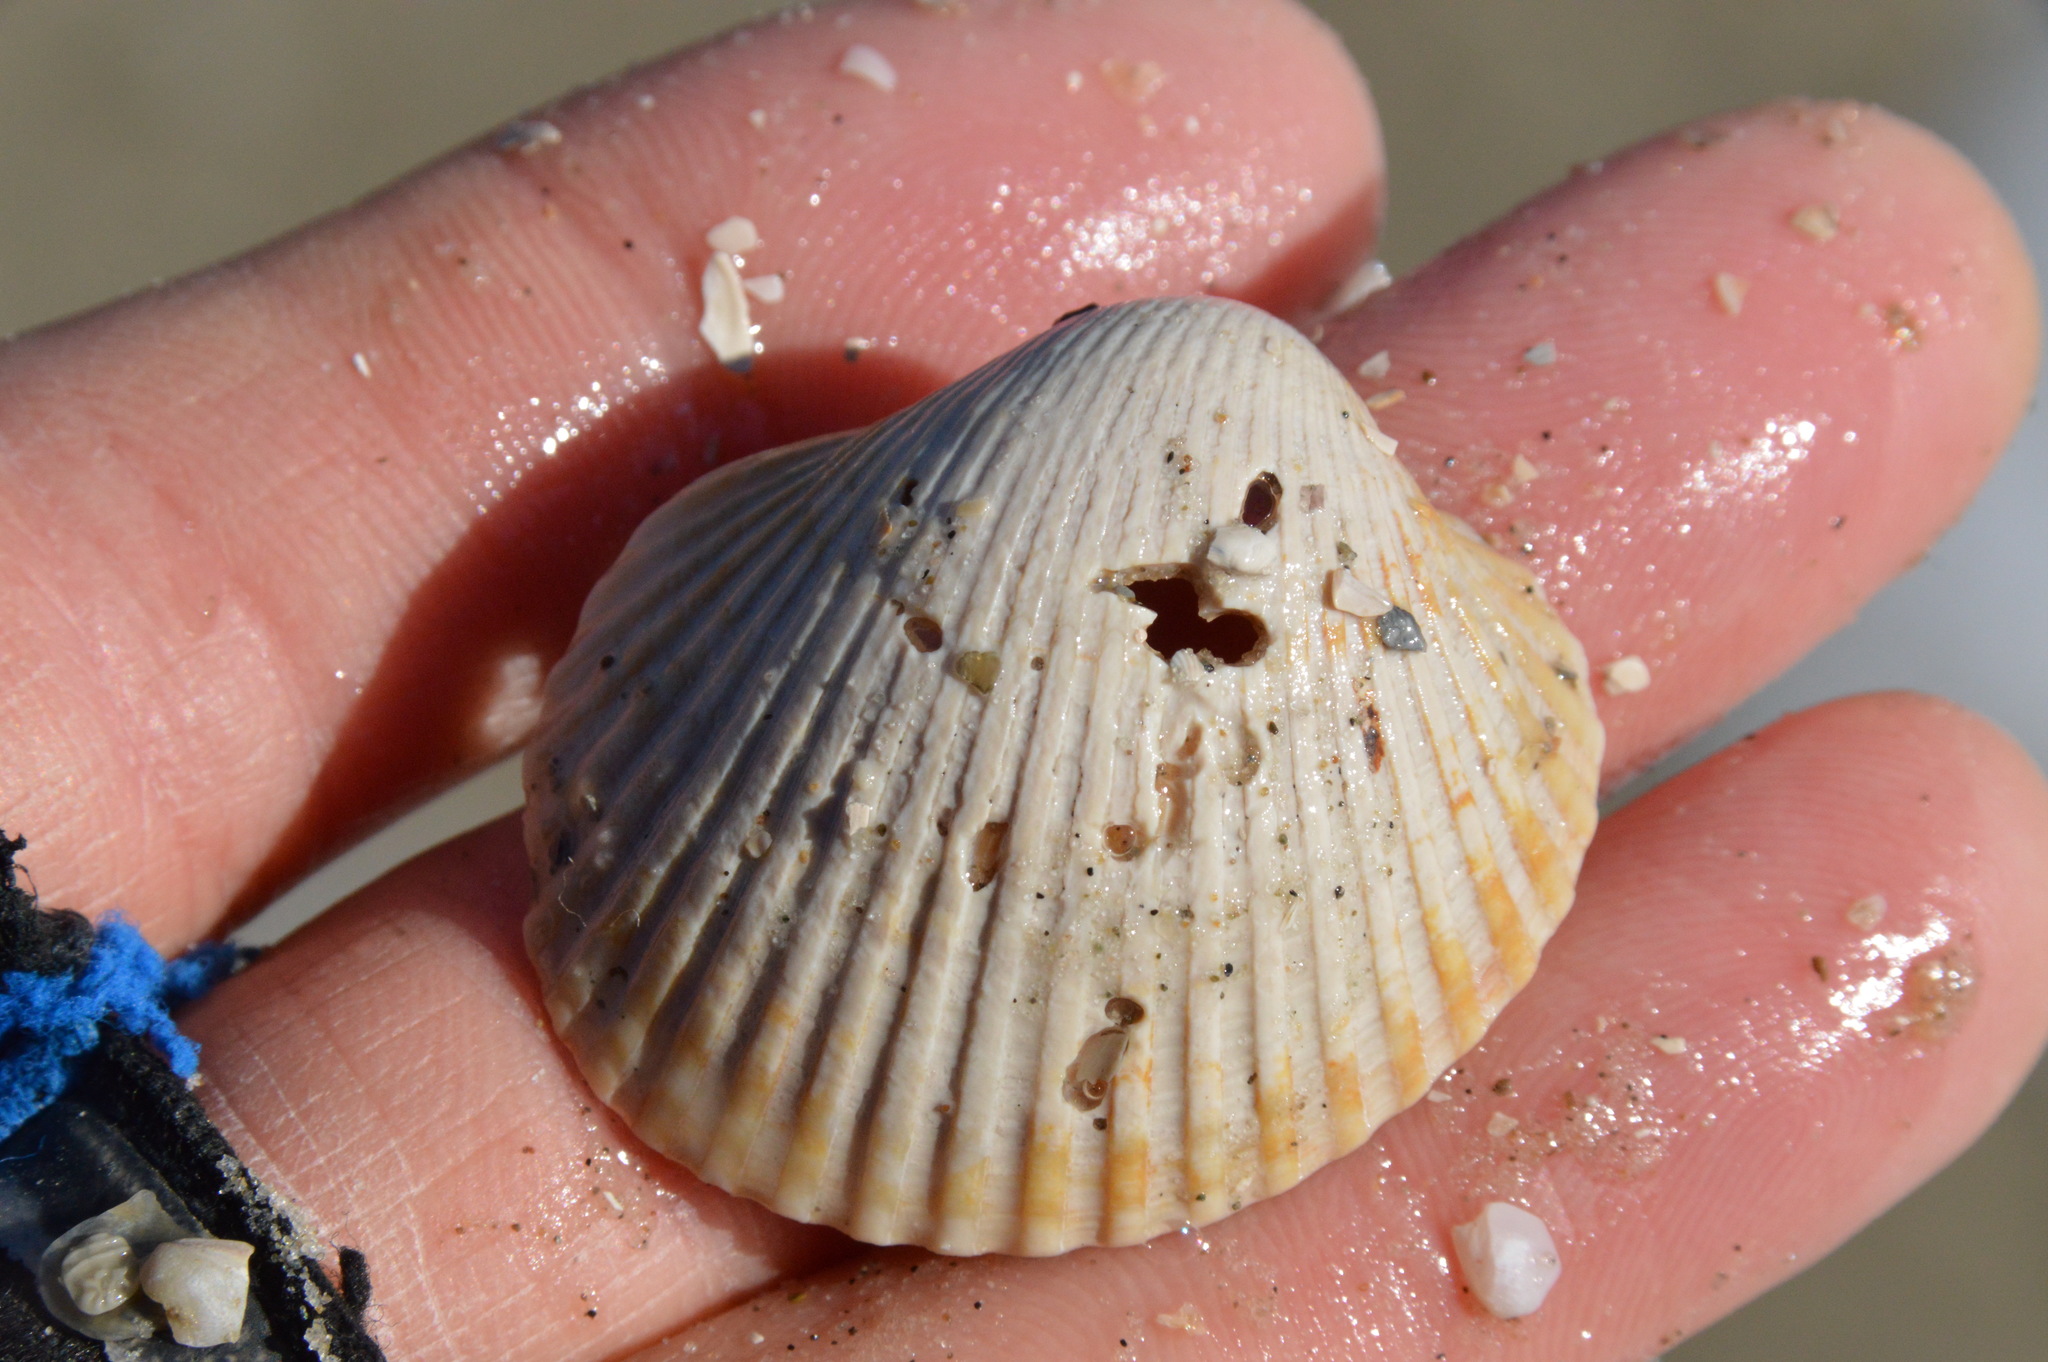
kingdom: Animalia
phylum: Mollusca
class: Bivalvia
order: Arcida
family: Arcidae
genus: Lunarca
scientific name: Lunarca ovalis
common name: Blood ark
